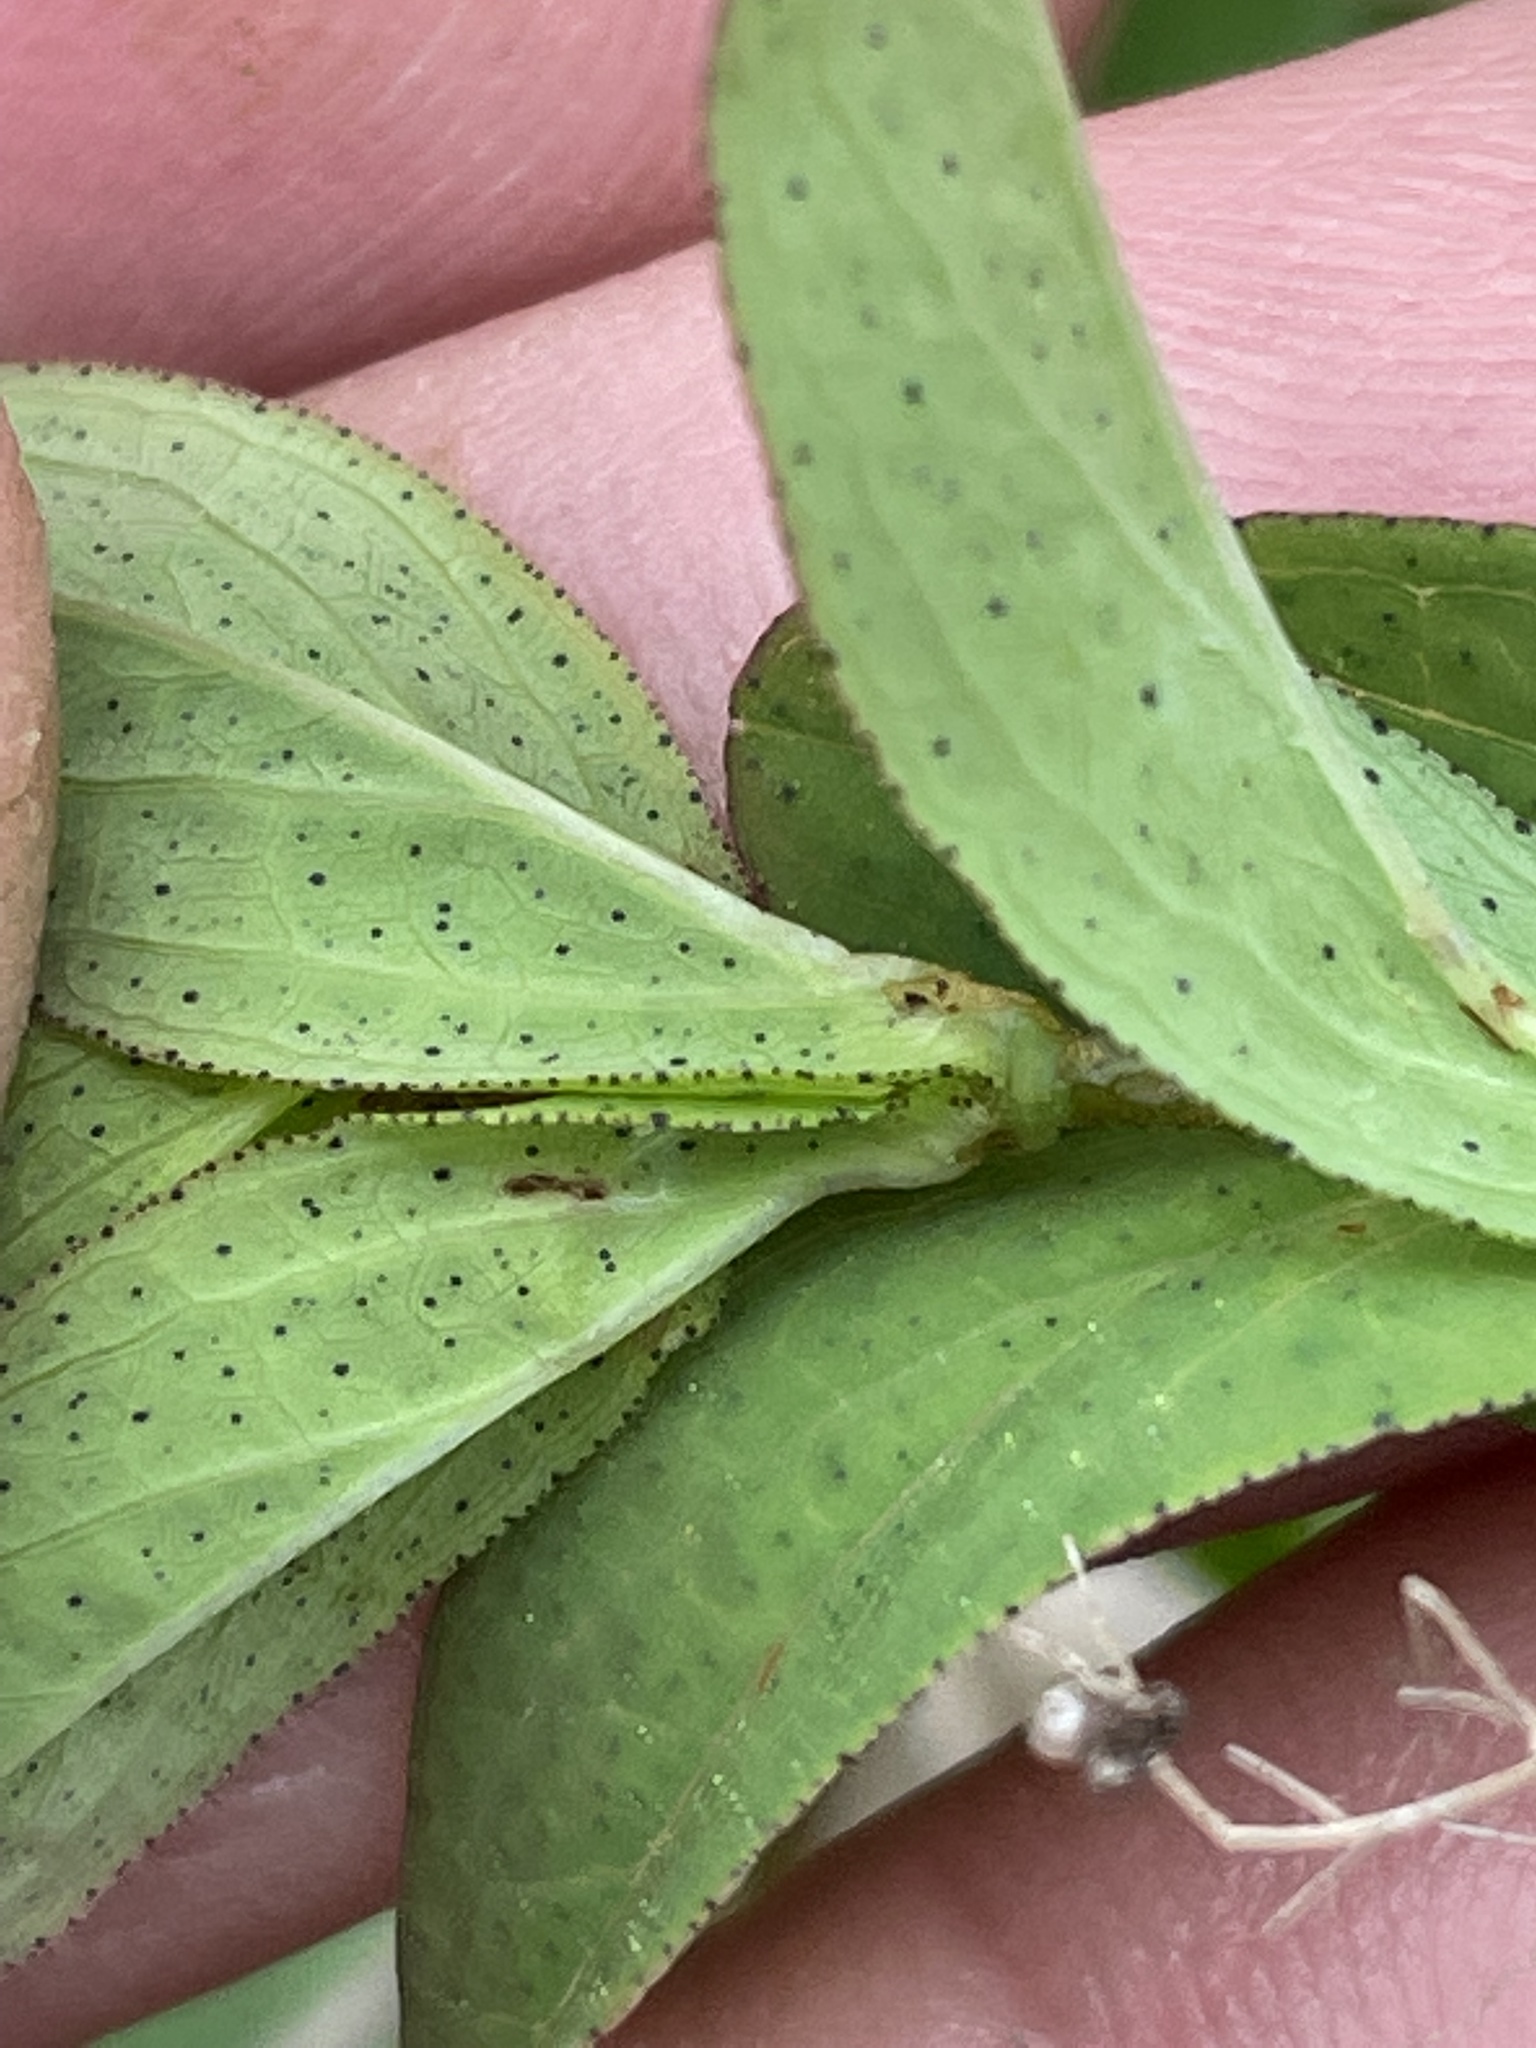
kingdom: Plantae
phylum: Tracheophyta
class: Magnoliopsida
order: Malpighiales
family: Hypericaceae
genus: Hypericum
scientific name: Hypericum punctatum
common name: Spotted st. john's-wort
